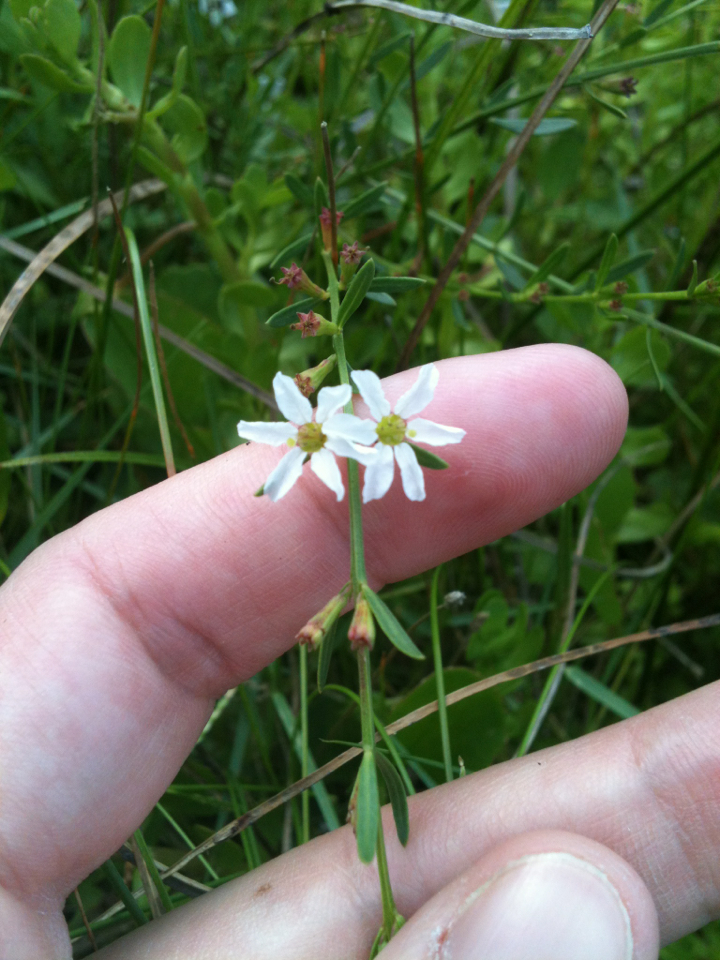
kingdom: Plantae
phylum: Tracheophyta
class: Magnoliopsida
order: Myrtales
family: Lythraceae
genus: Lythrum
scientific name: Lythrum lineare
